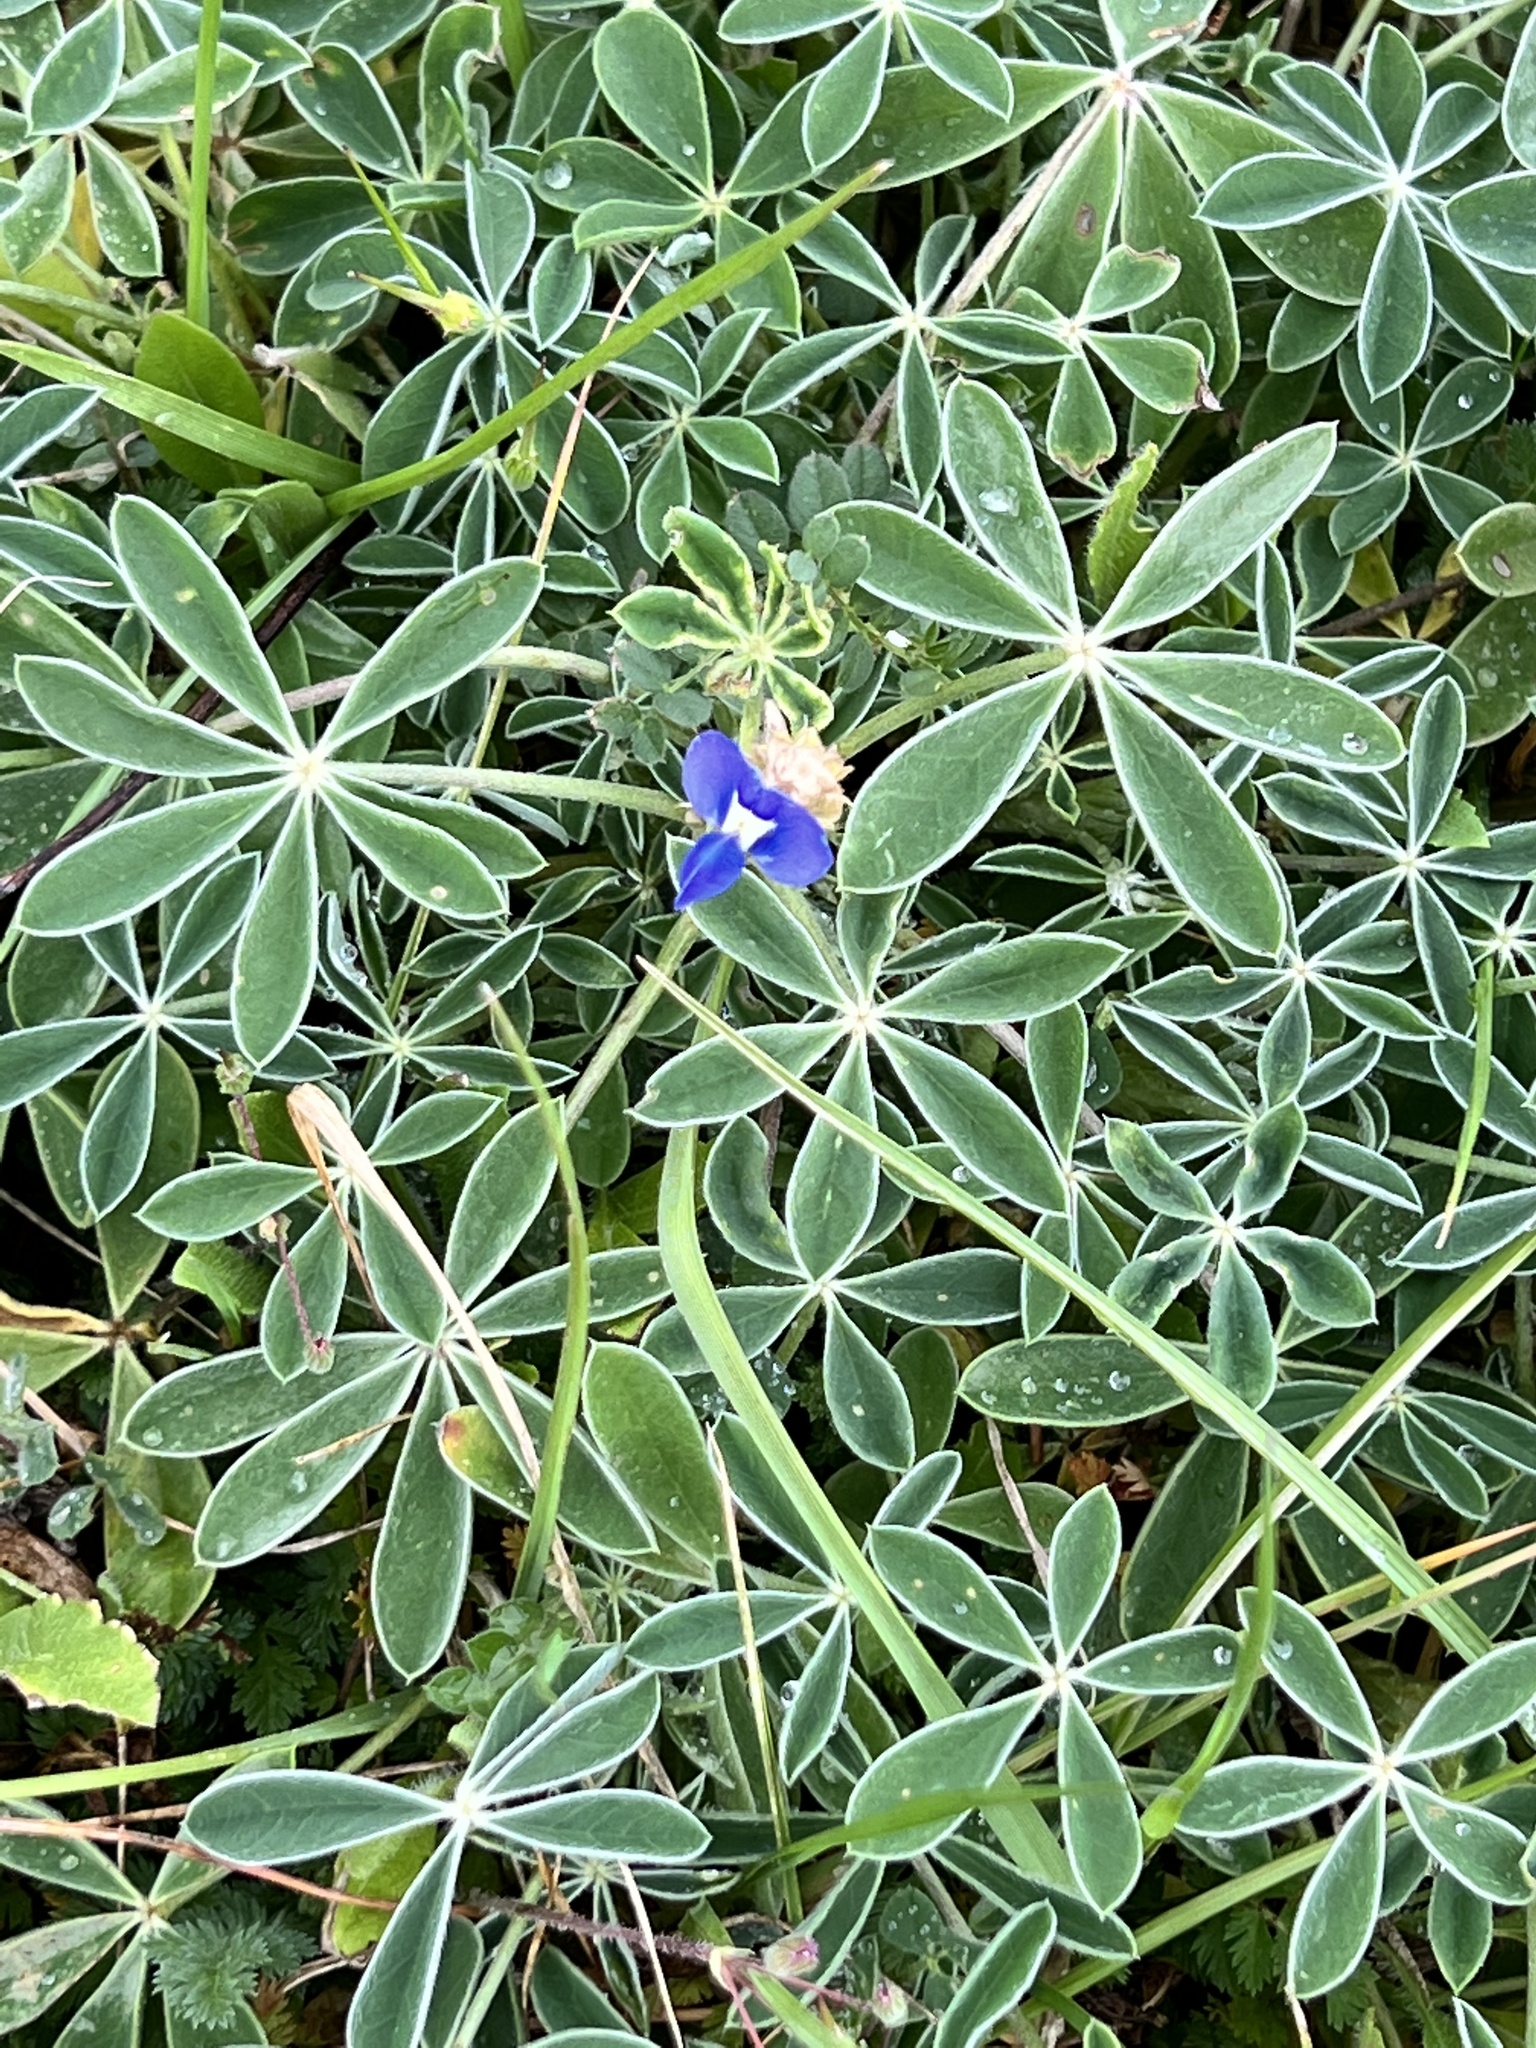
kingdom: Plantae
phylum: Tracheophyta
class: Magnoliopsida
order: Fabales
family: Fabaceae
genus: Lupinus
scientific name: Lupinus texensis
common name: Texas bluebonnet
